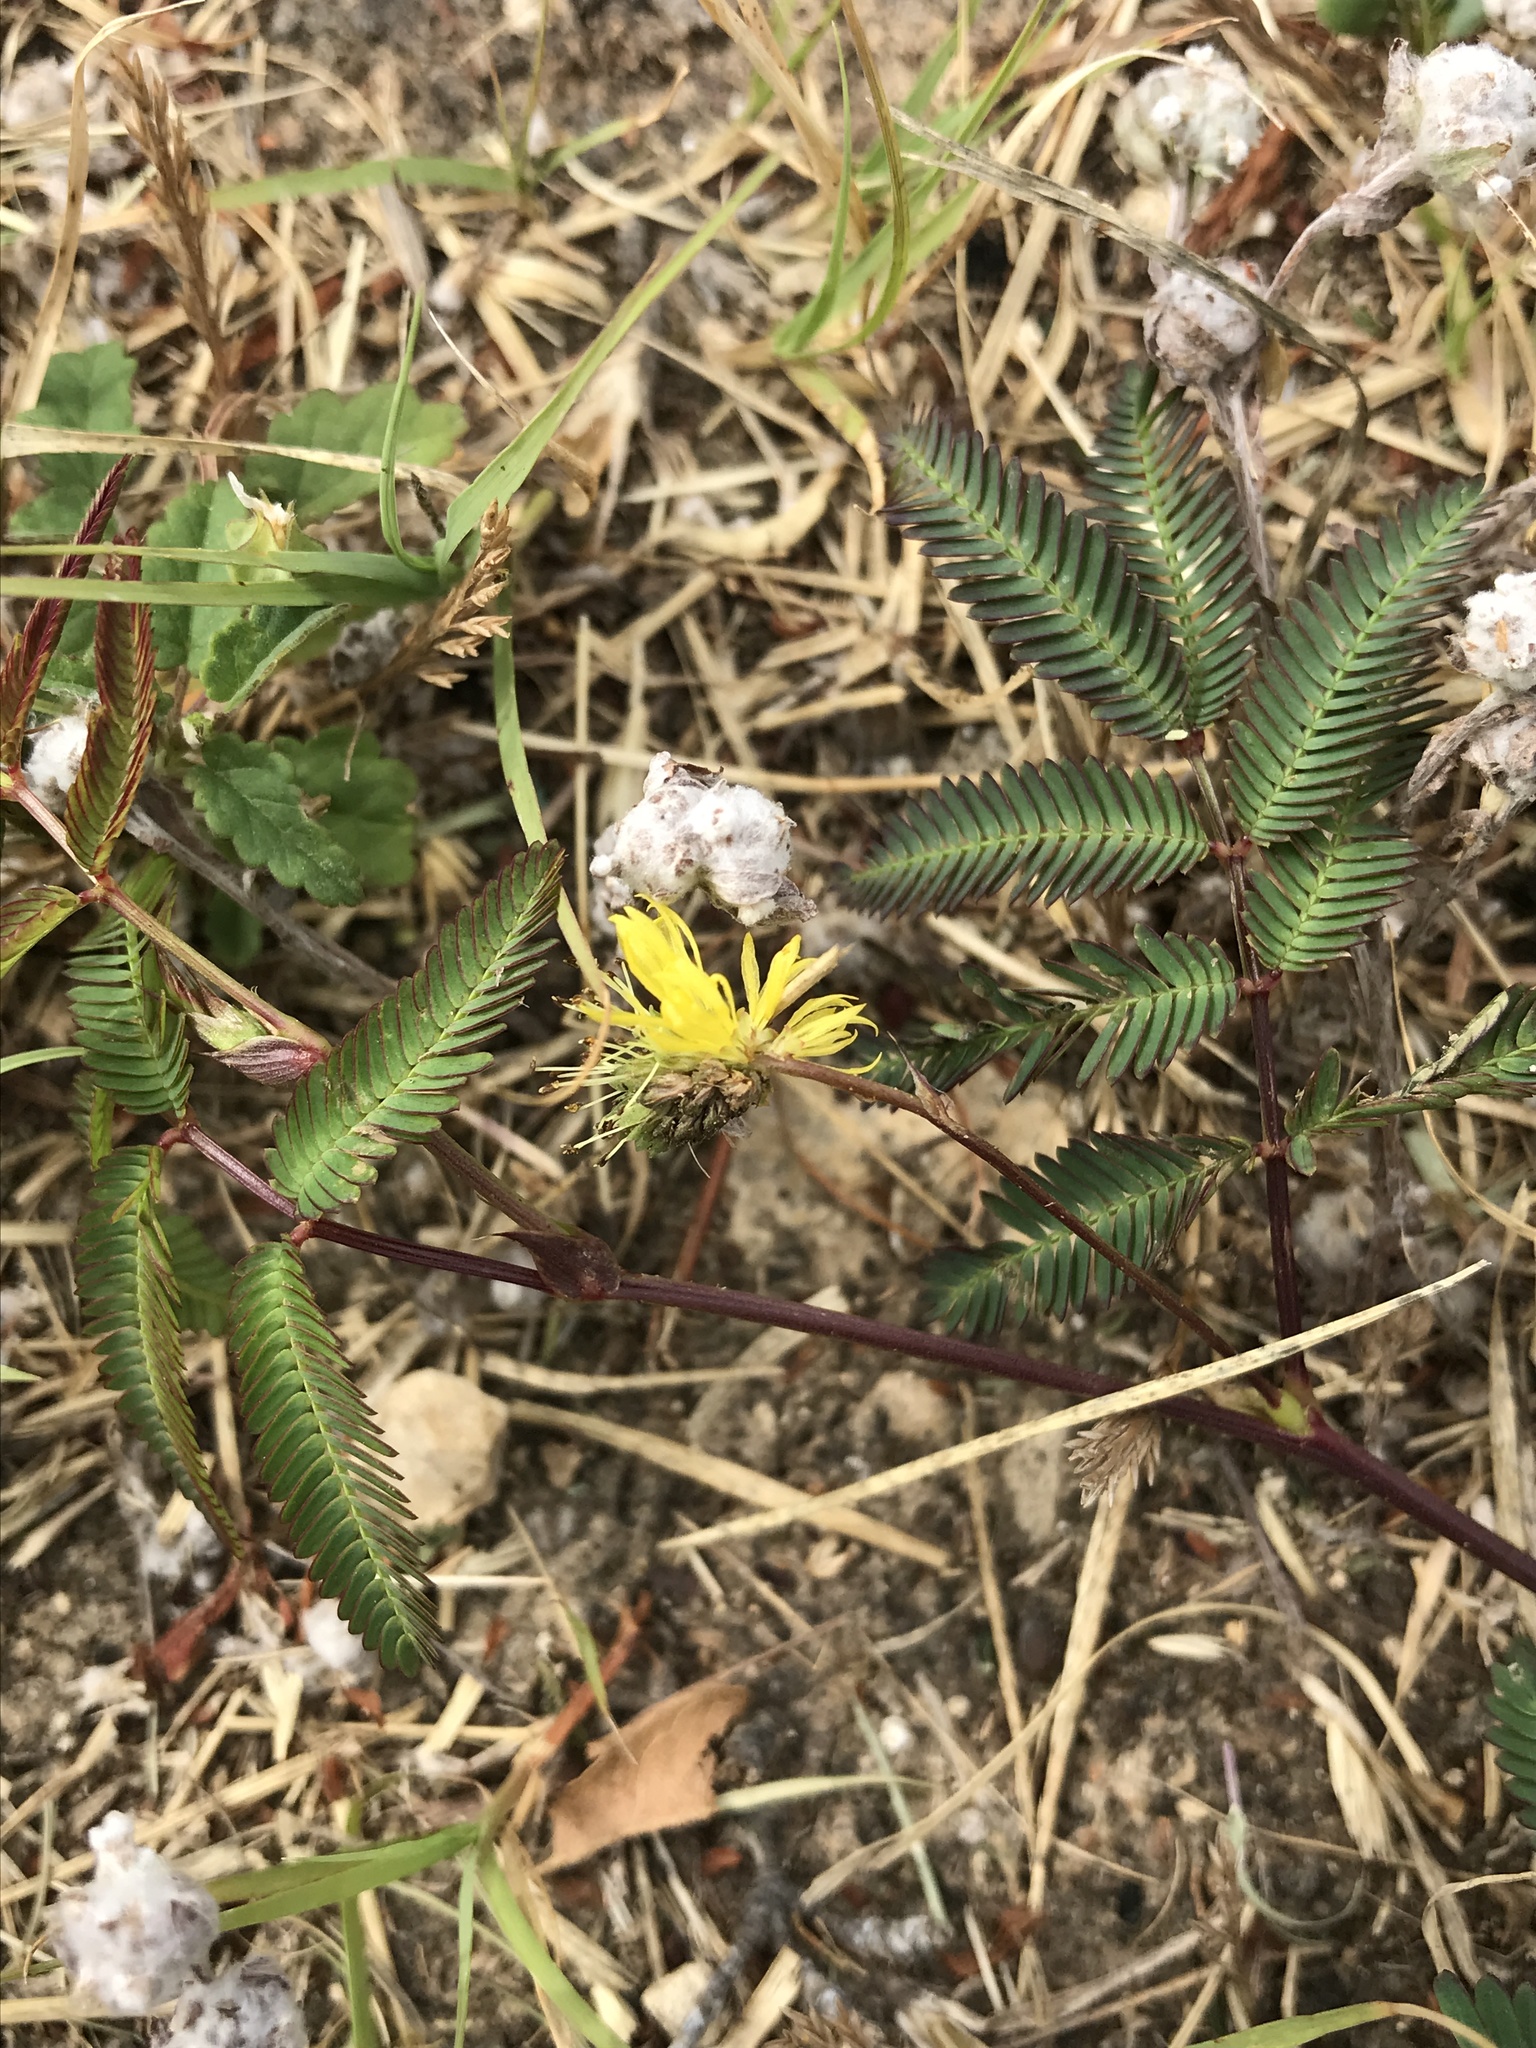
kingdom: Plantae
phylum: Tracheophyta
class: Magnoliopsida
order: Fabales
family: Fabaceae
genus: Neptunia
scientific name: Neptunia pubescens
